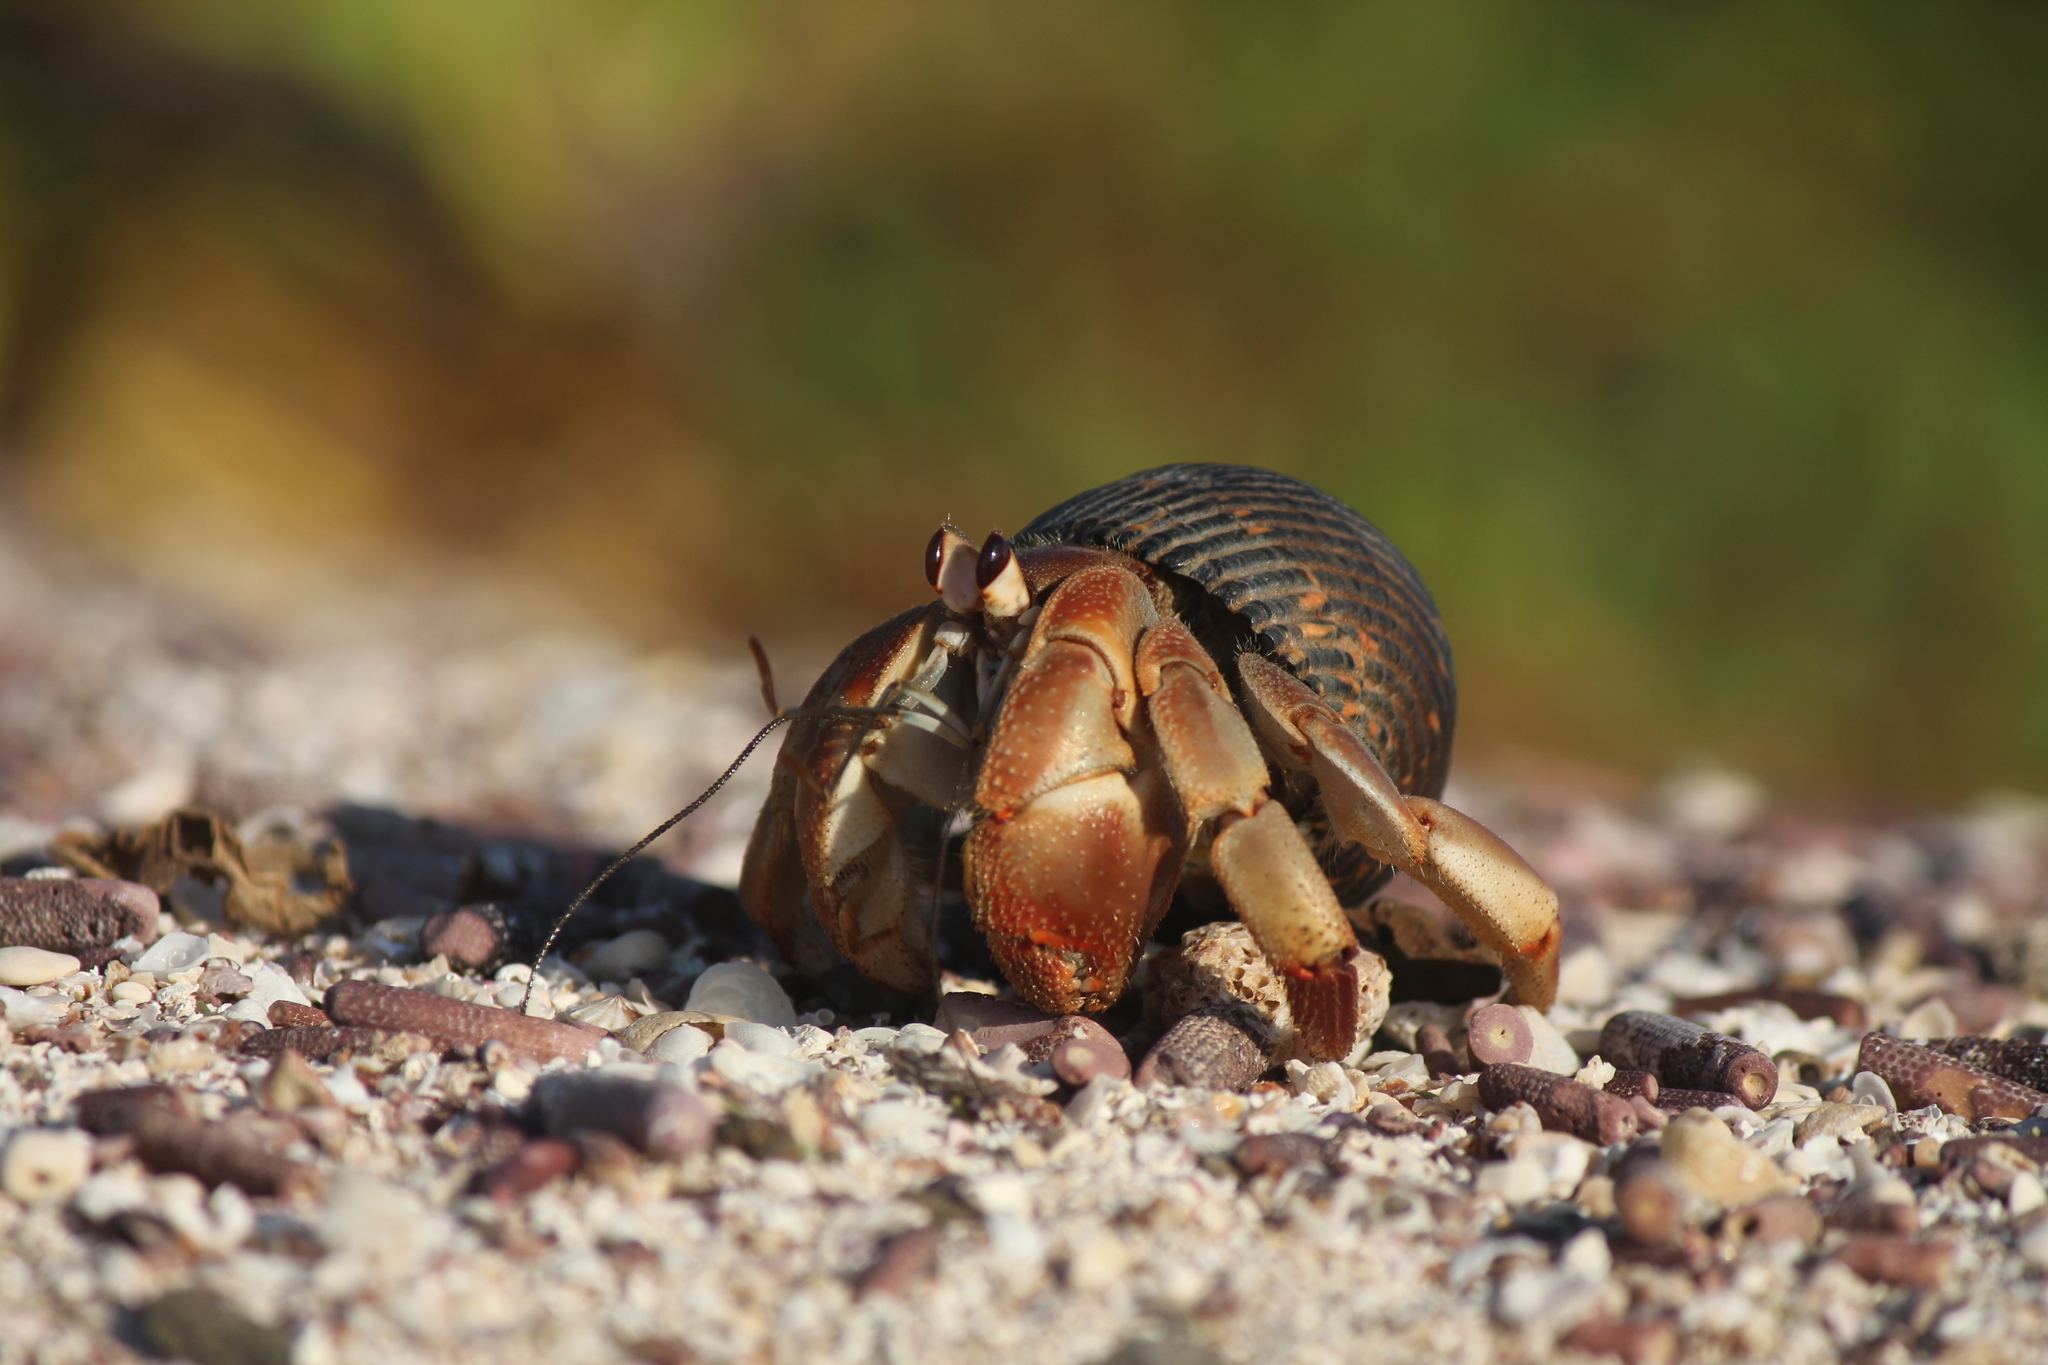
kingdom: Animalia
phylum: Arthropoda
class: Malacostraca
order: Decapoda
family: Coenobitidae
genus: Coenobita
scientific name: Coenobita compressus
